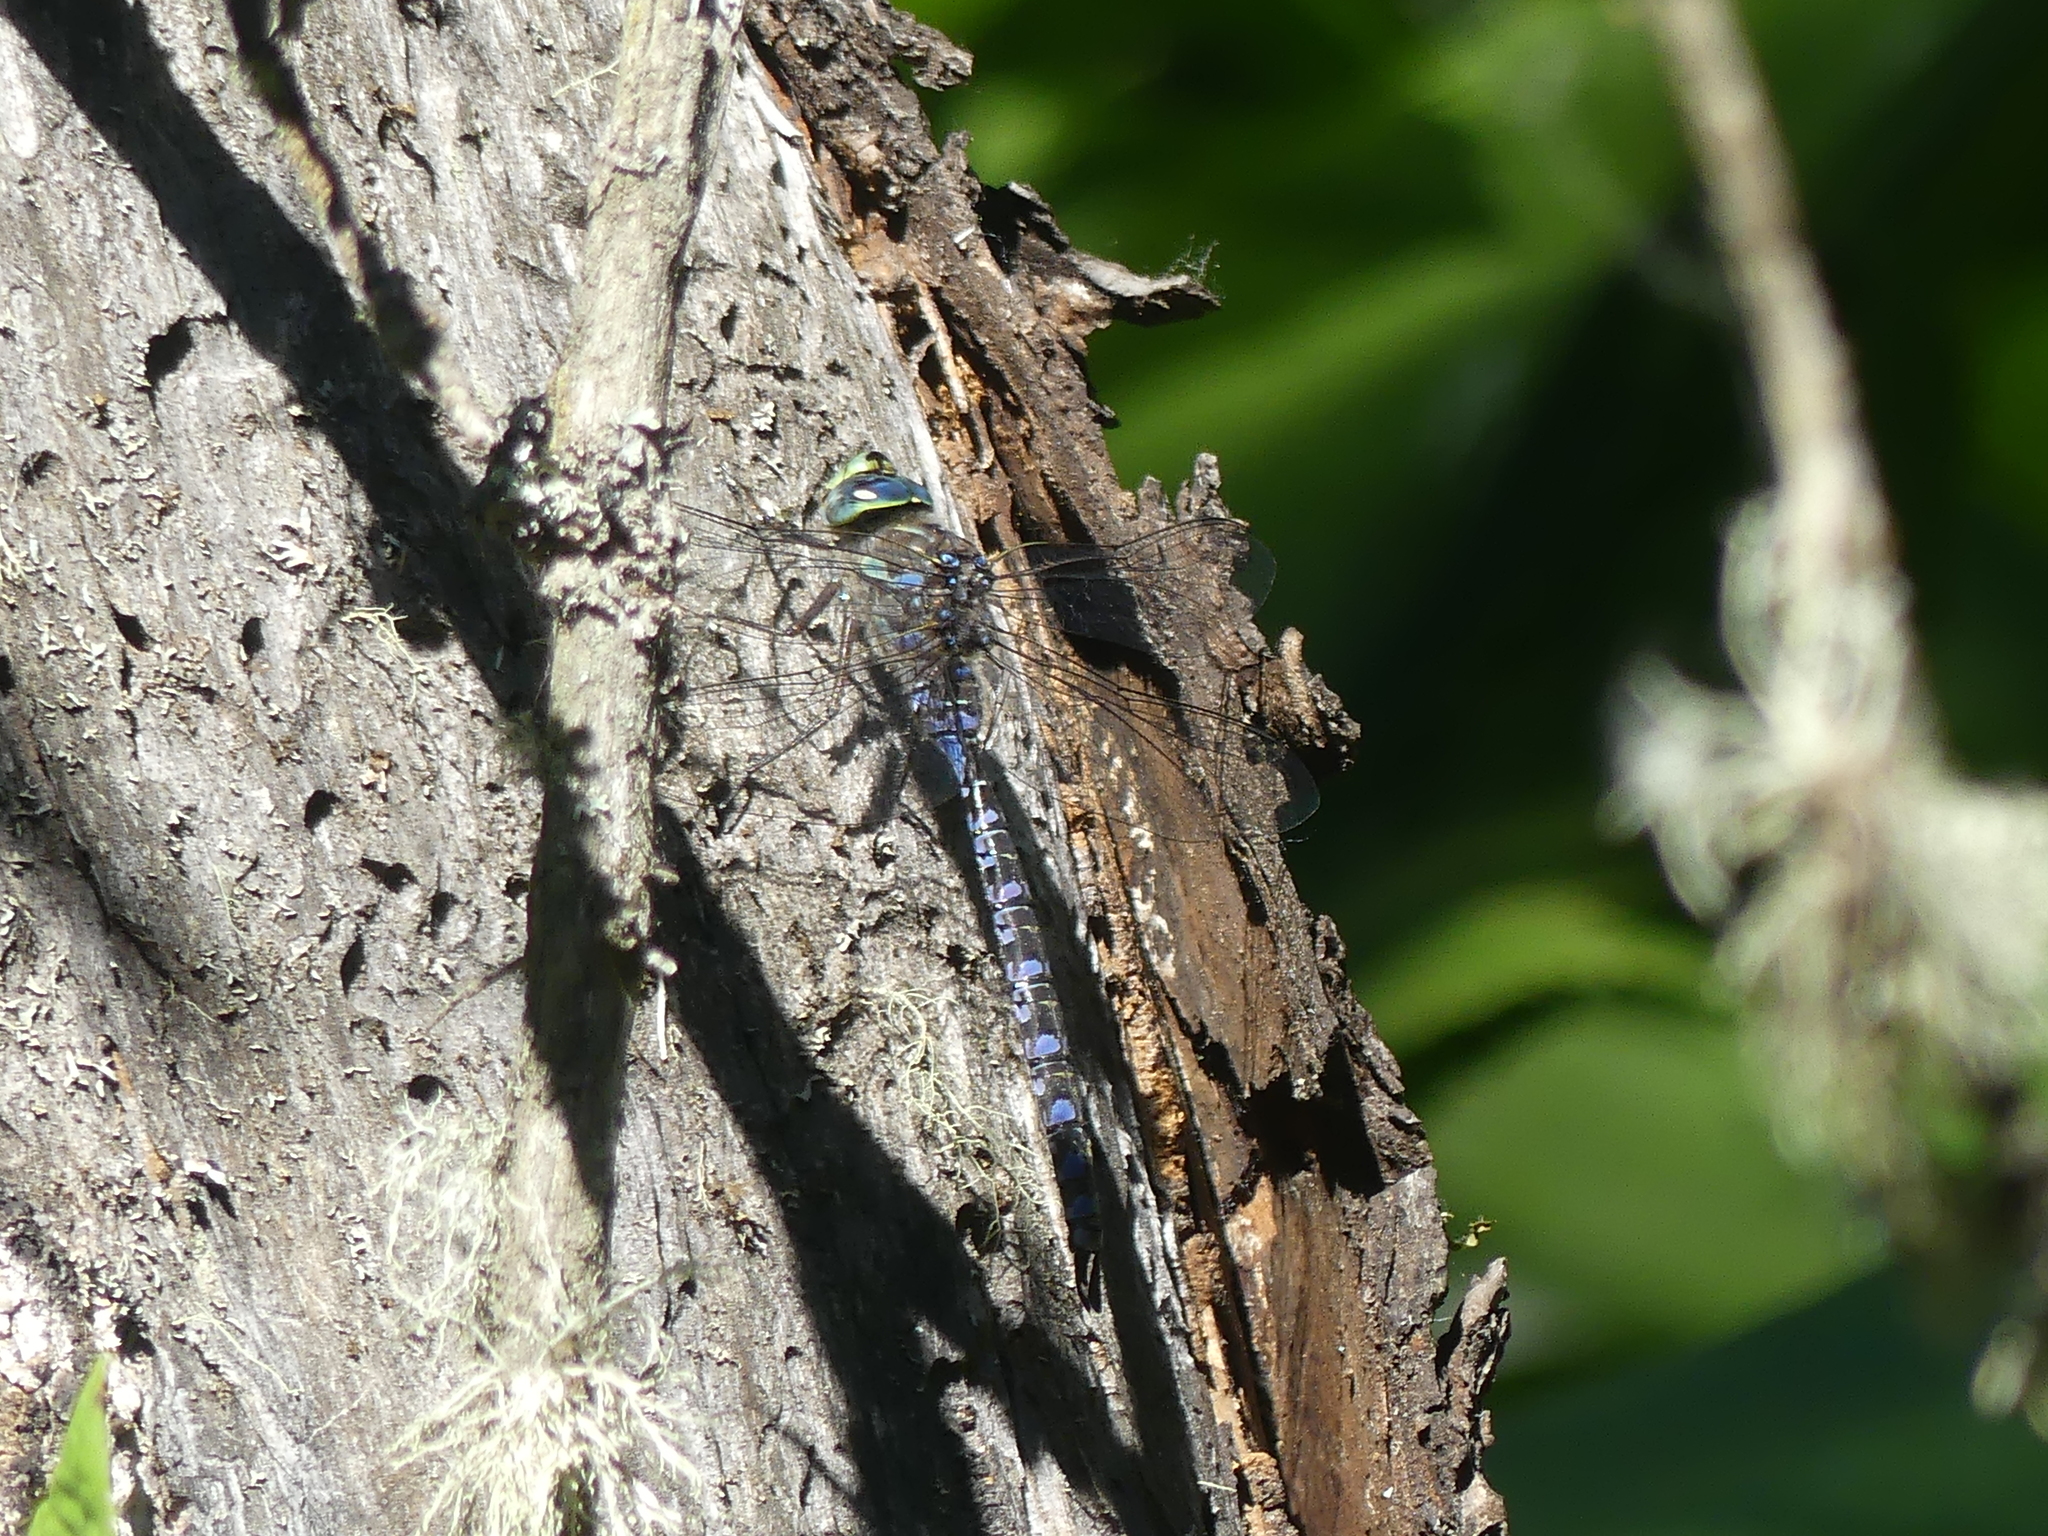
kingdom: Animalia
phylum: Arthropoda
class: Insecta
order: Odonata
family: Aeshnidae
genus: Aeshna
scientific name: Aeshna eremita
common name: Lake darner
